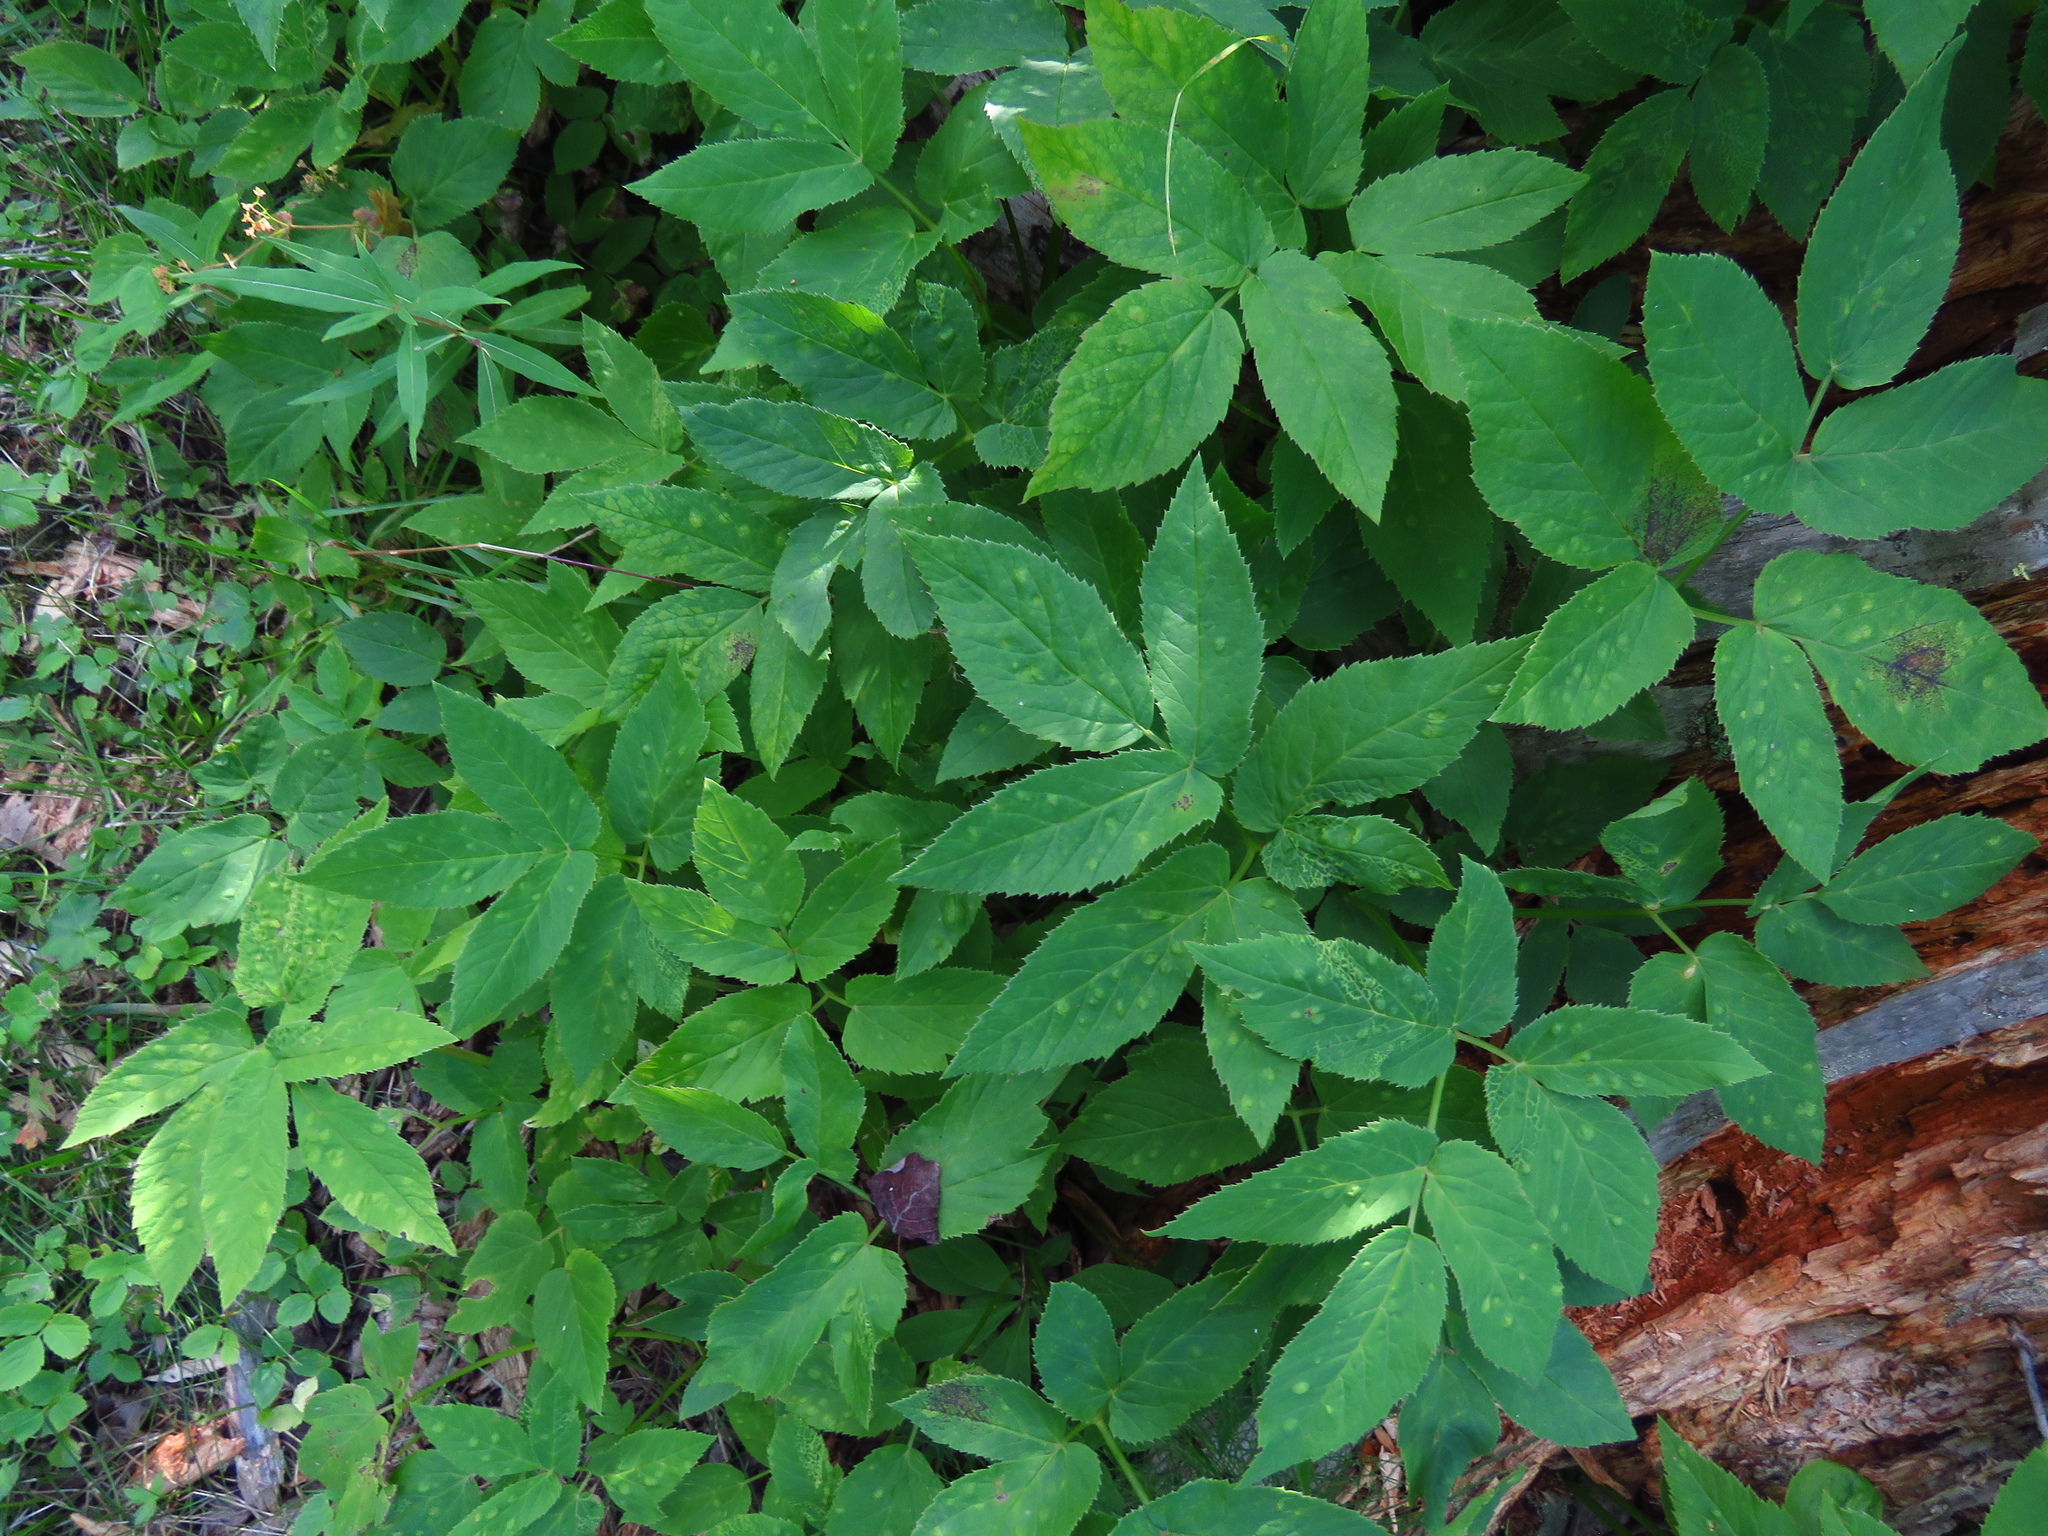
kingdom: Plantae
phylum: Tracheophyta
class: Magnoliopsida
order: Apiales
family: Apiaceae
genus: Aegopodium
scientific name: Aegopodium podagraria
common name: Ground-elder
